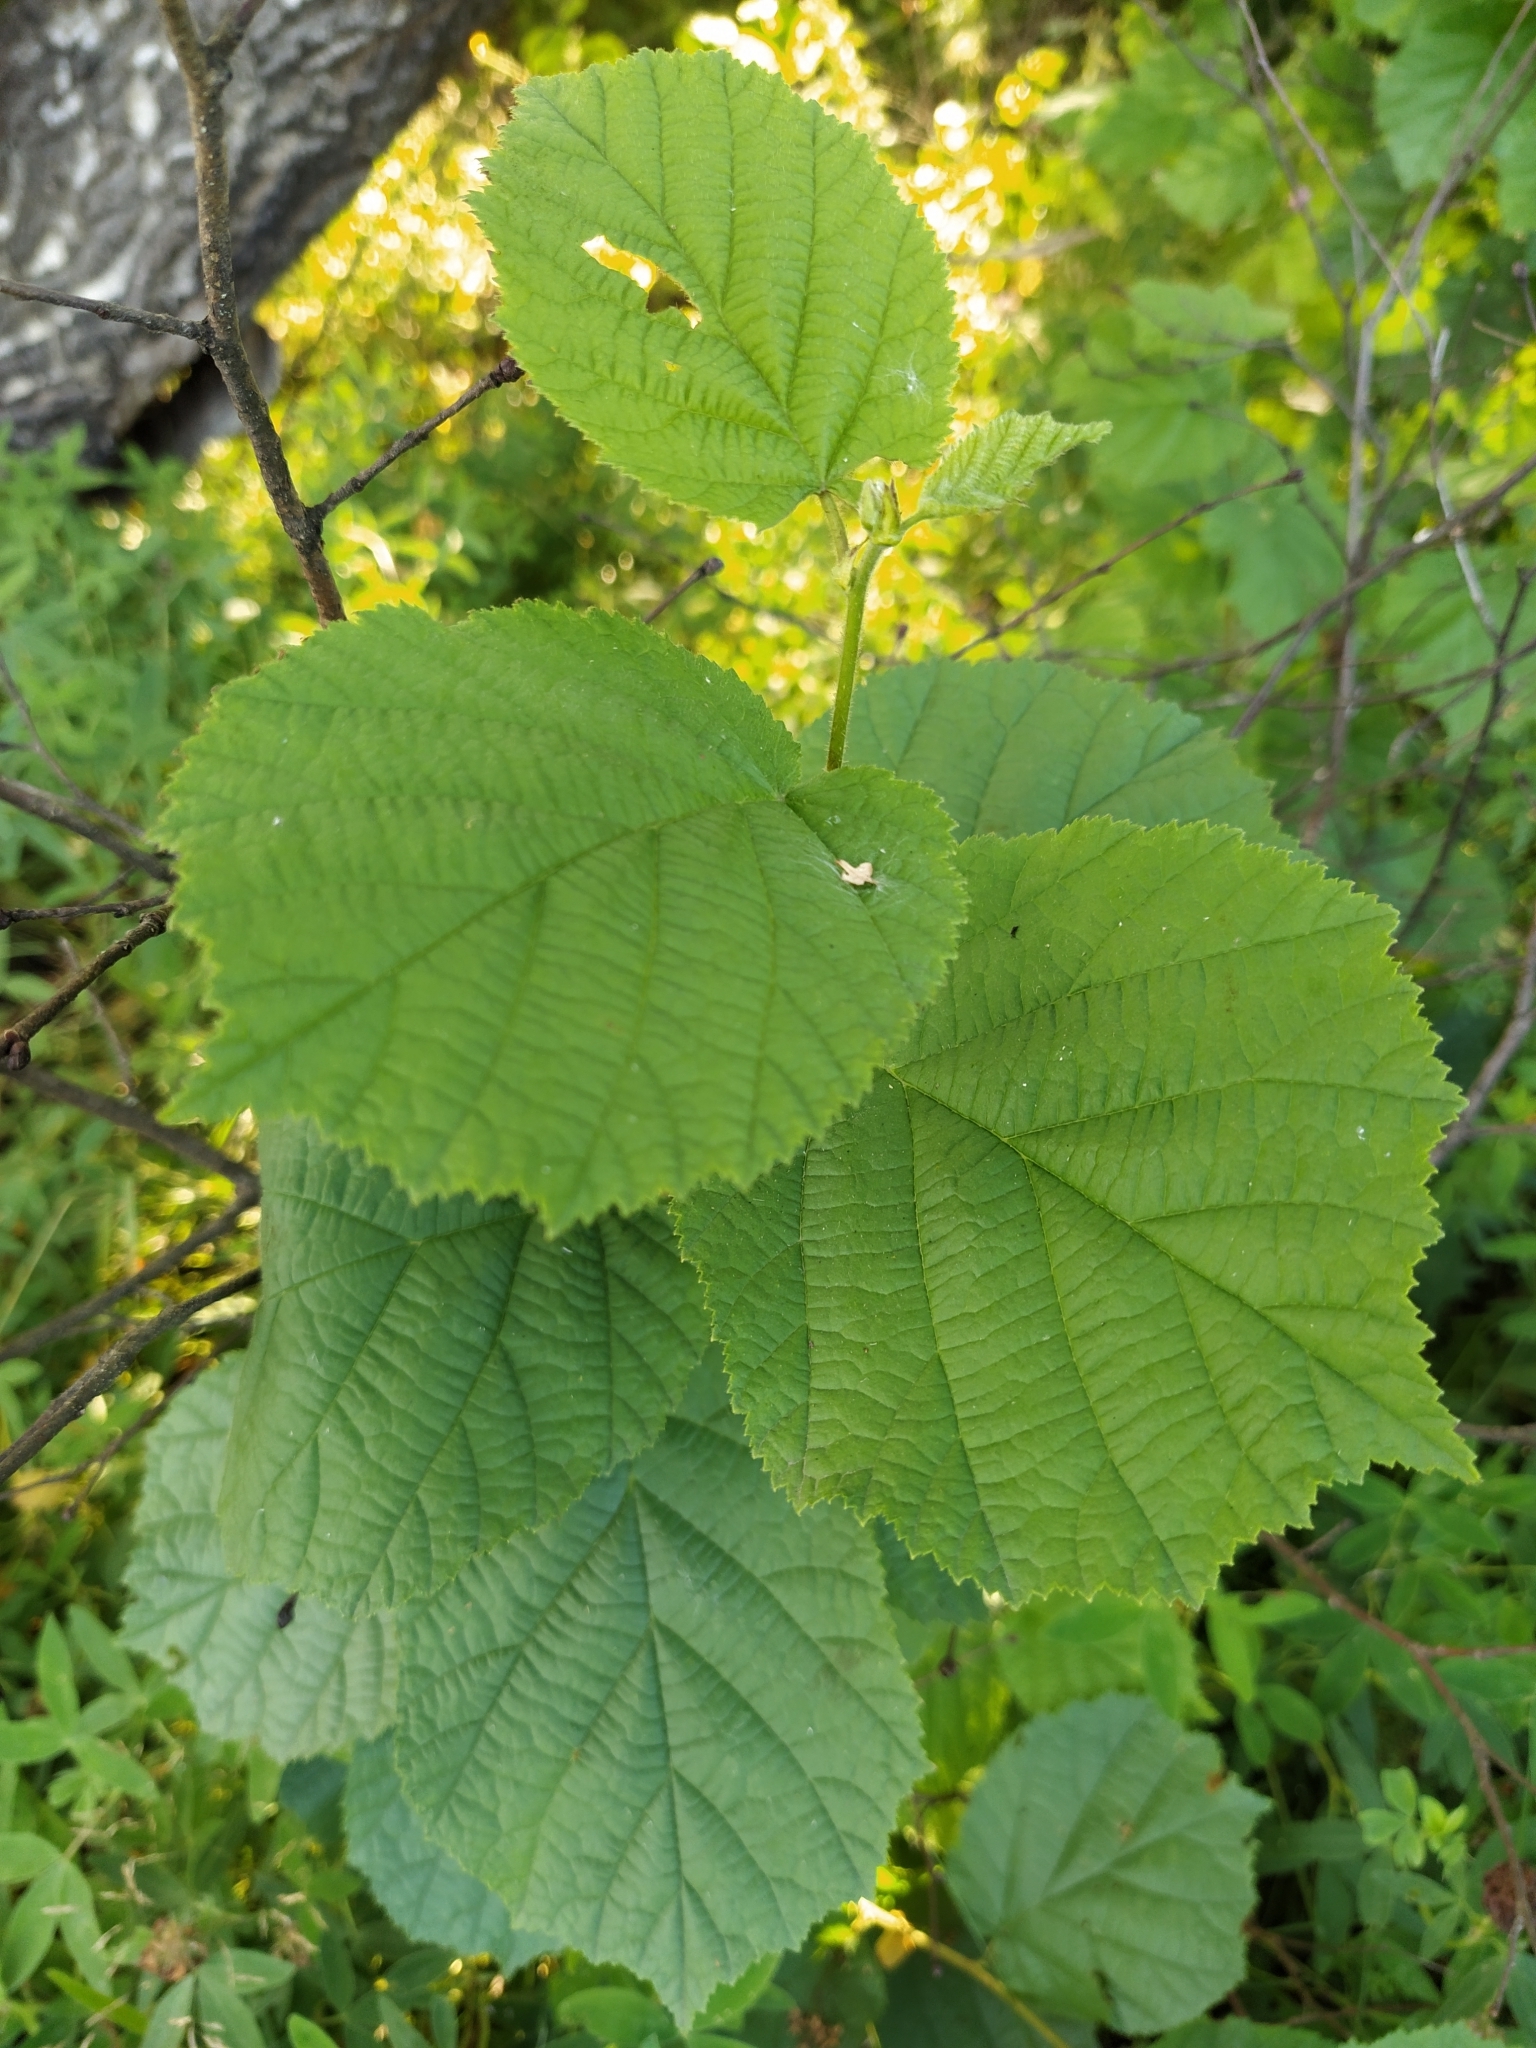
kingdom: Plantae
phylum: Tracheophyta
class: Magnoliopsida
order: Fagales
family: Betulaceae
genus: Corylus
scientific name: Corylus avellana
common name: European hazel
